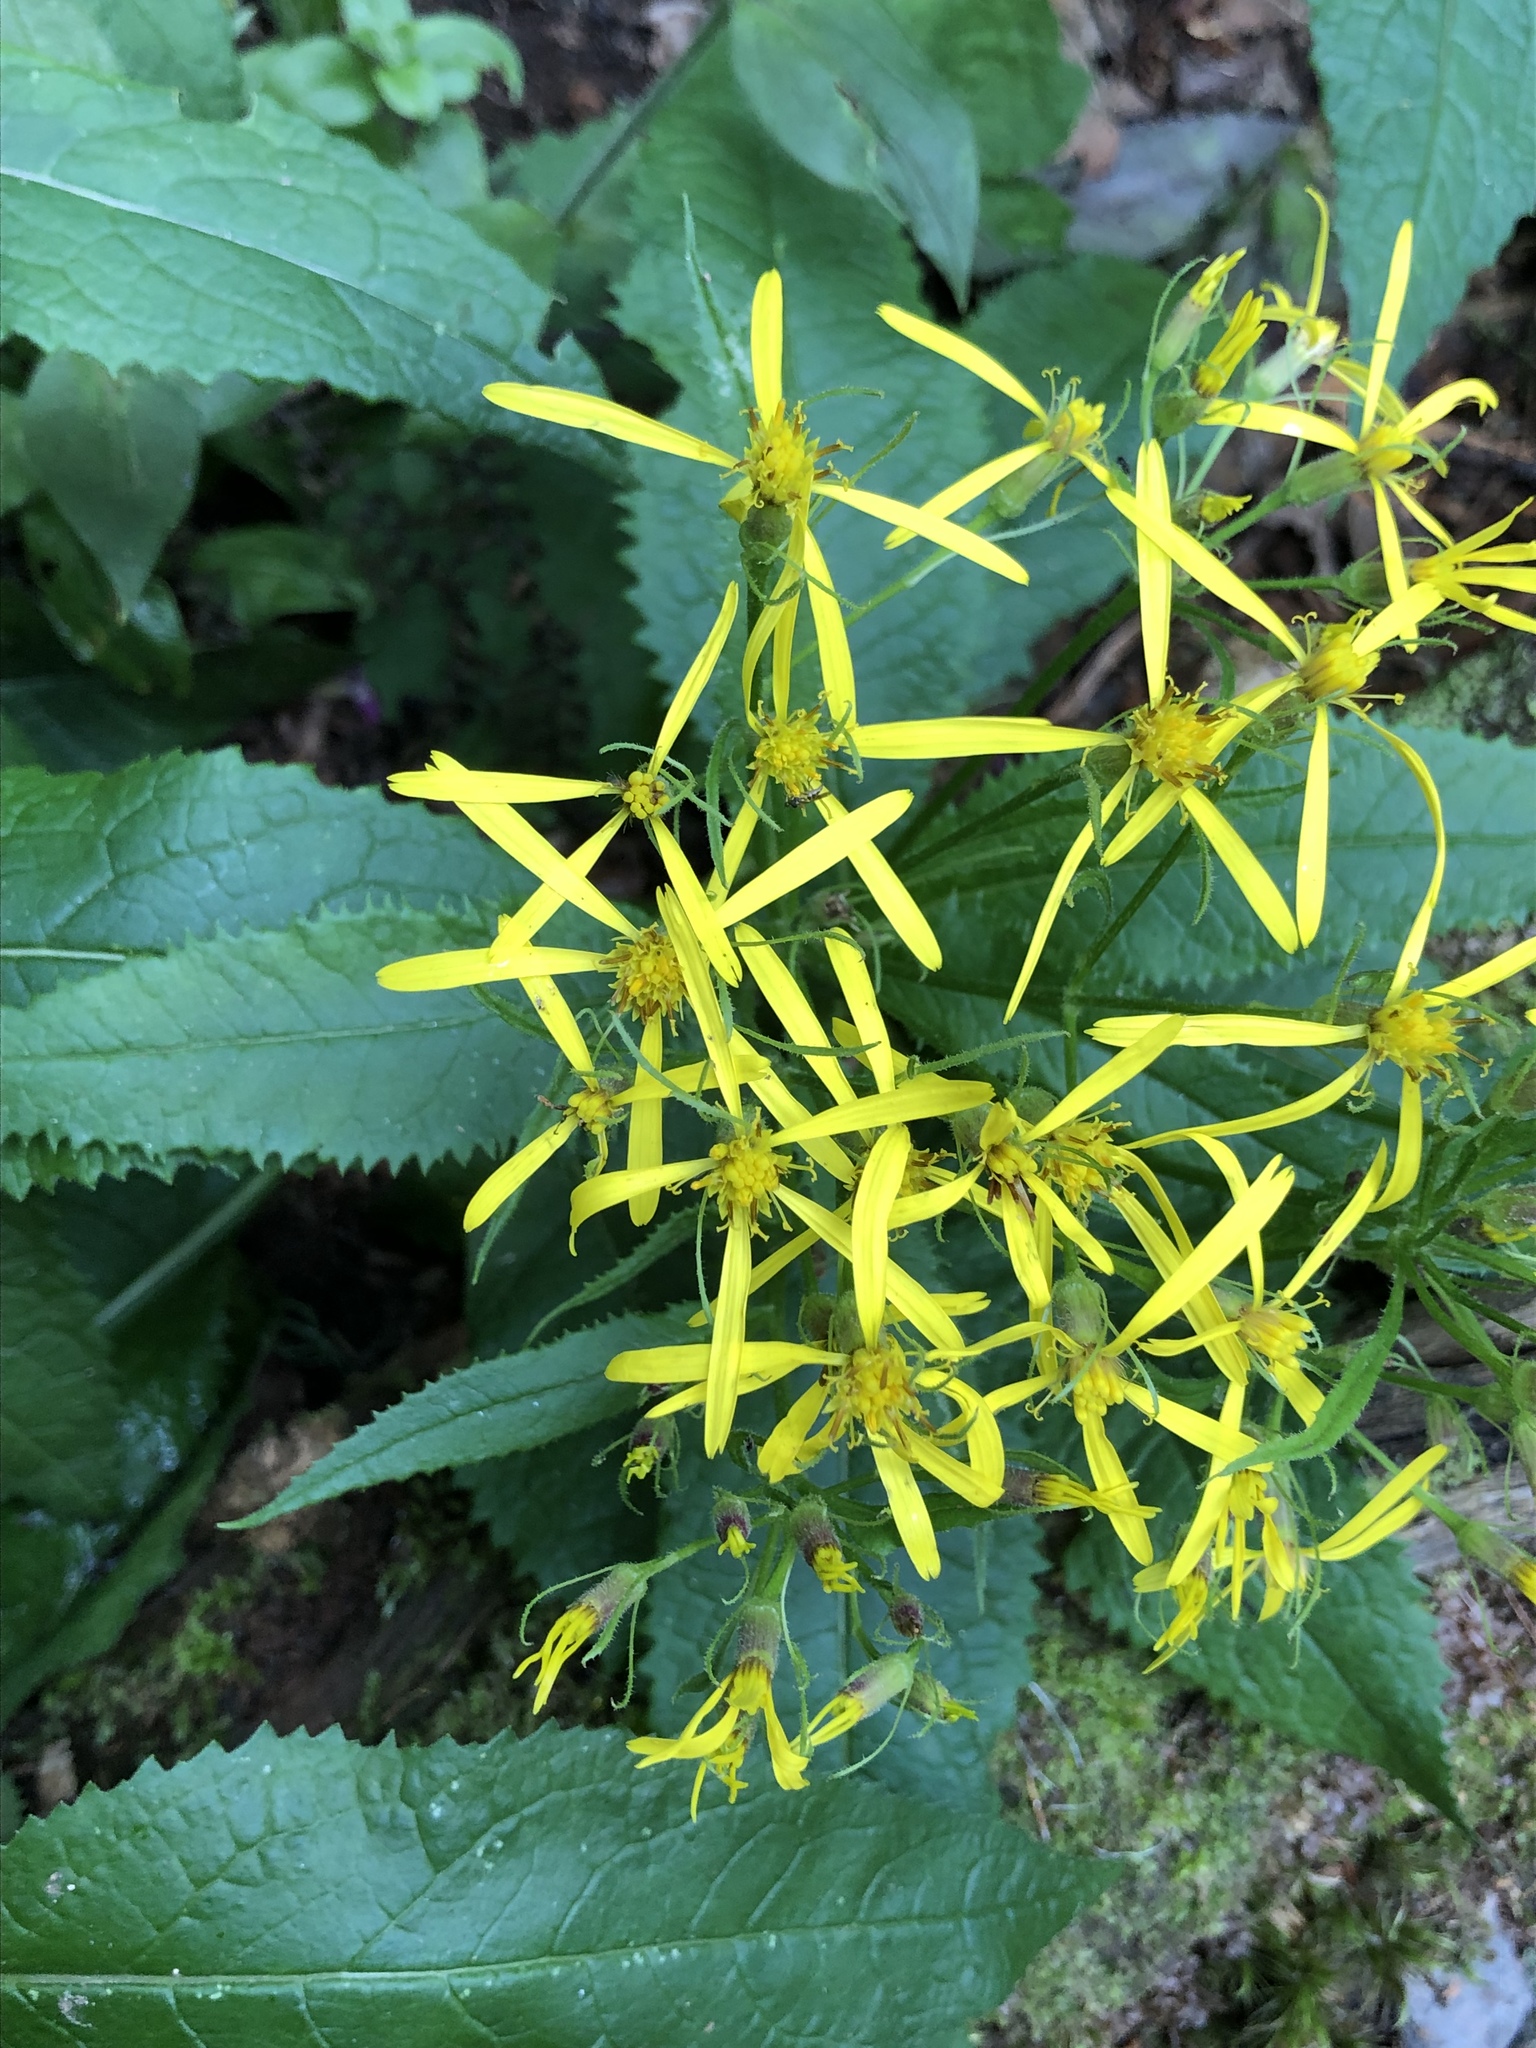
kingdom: Plantae
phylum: Tracheophyta
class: Magnoliopsida
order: Asterales
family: Asteraceae
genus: Senecio
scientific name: Senecio ovatus
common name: Wood ragwort
